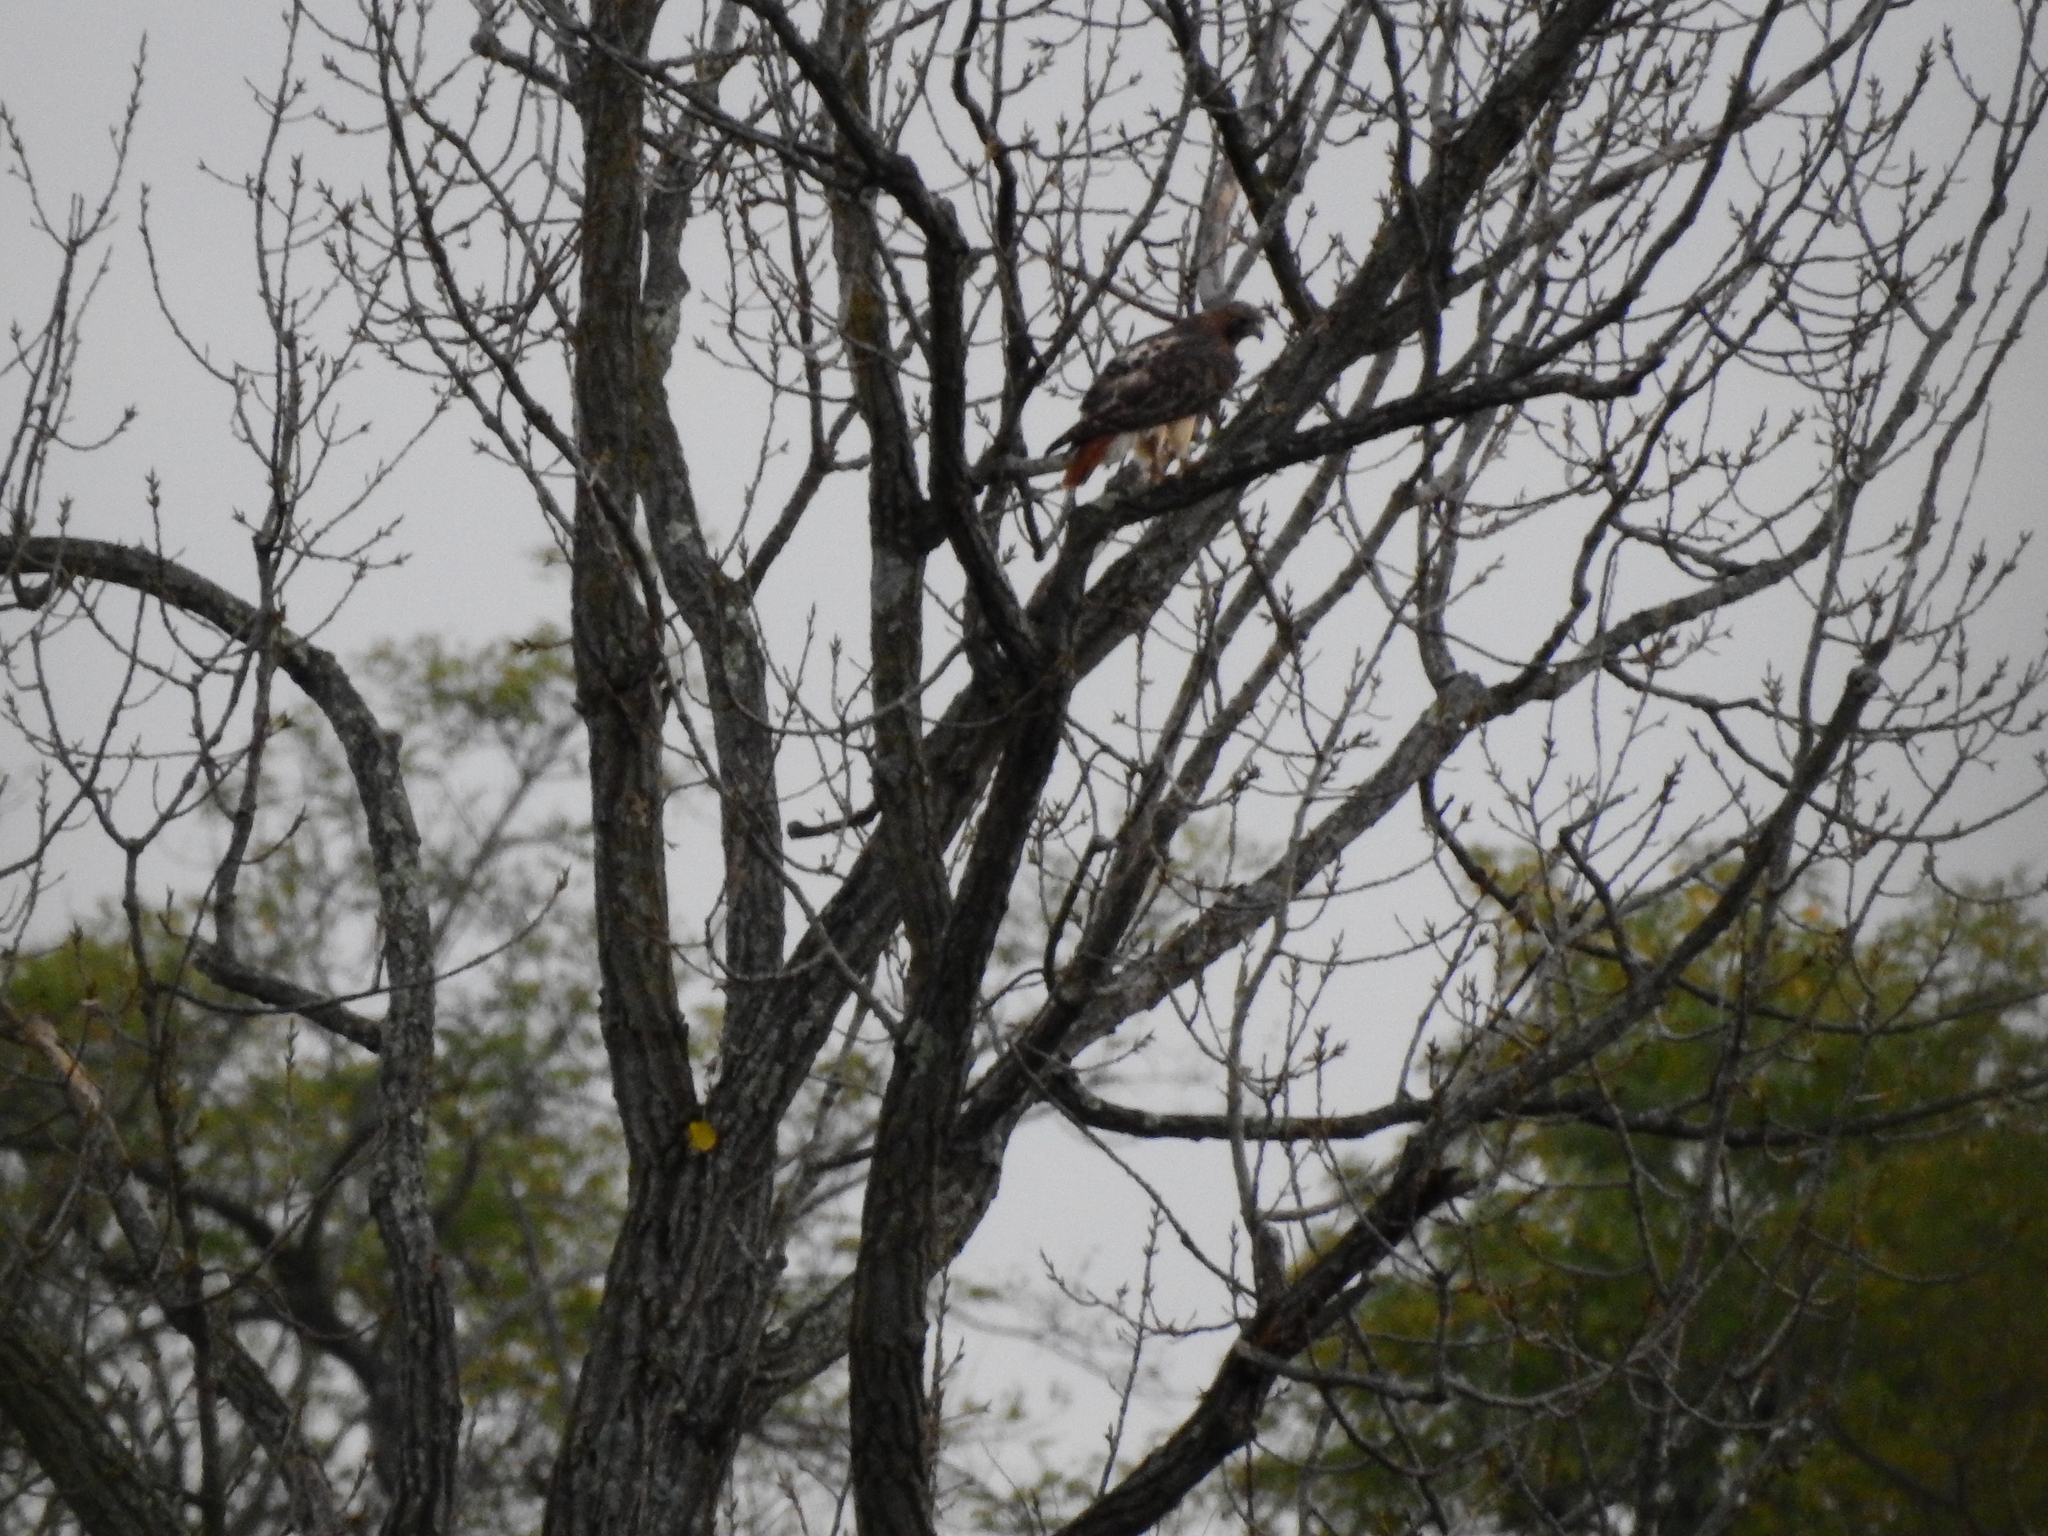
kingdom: Animalia
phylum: Chordata
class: Aves
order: Accipitriformes
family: Accipitridae
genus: Buteo
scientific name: Buteo jamaicensis
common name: Red-tailed hawk
